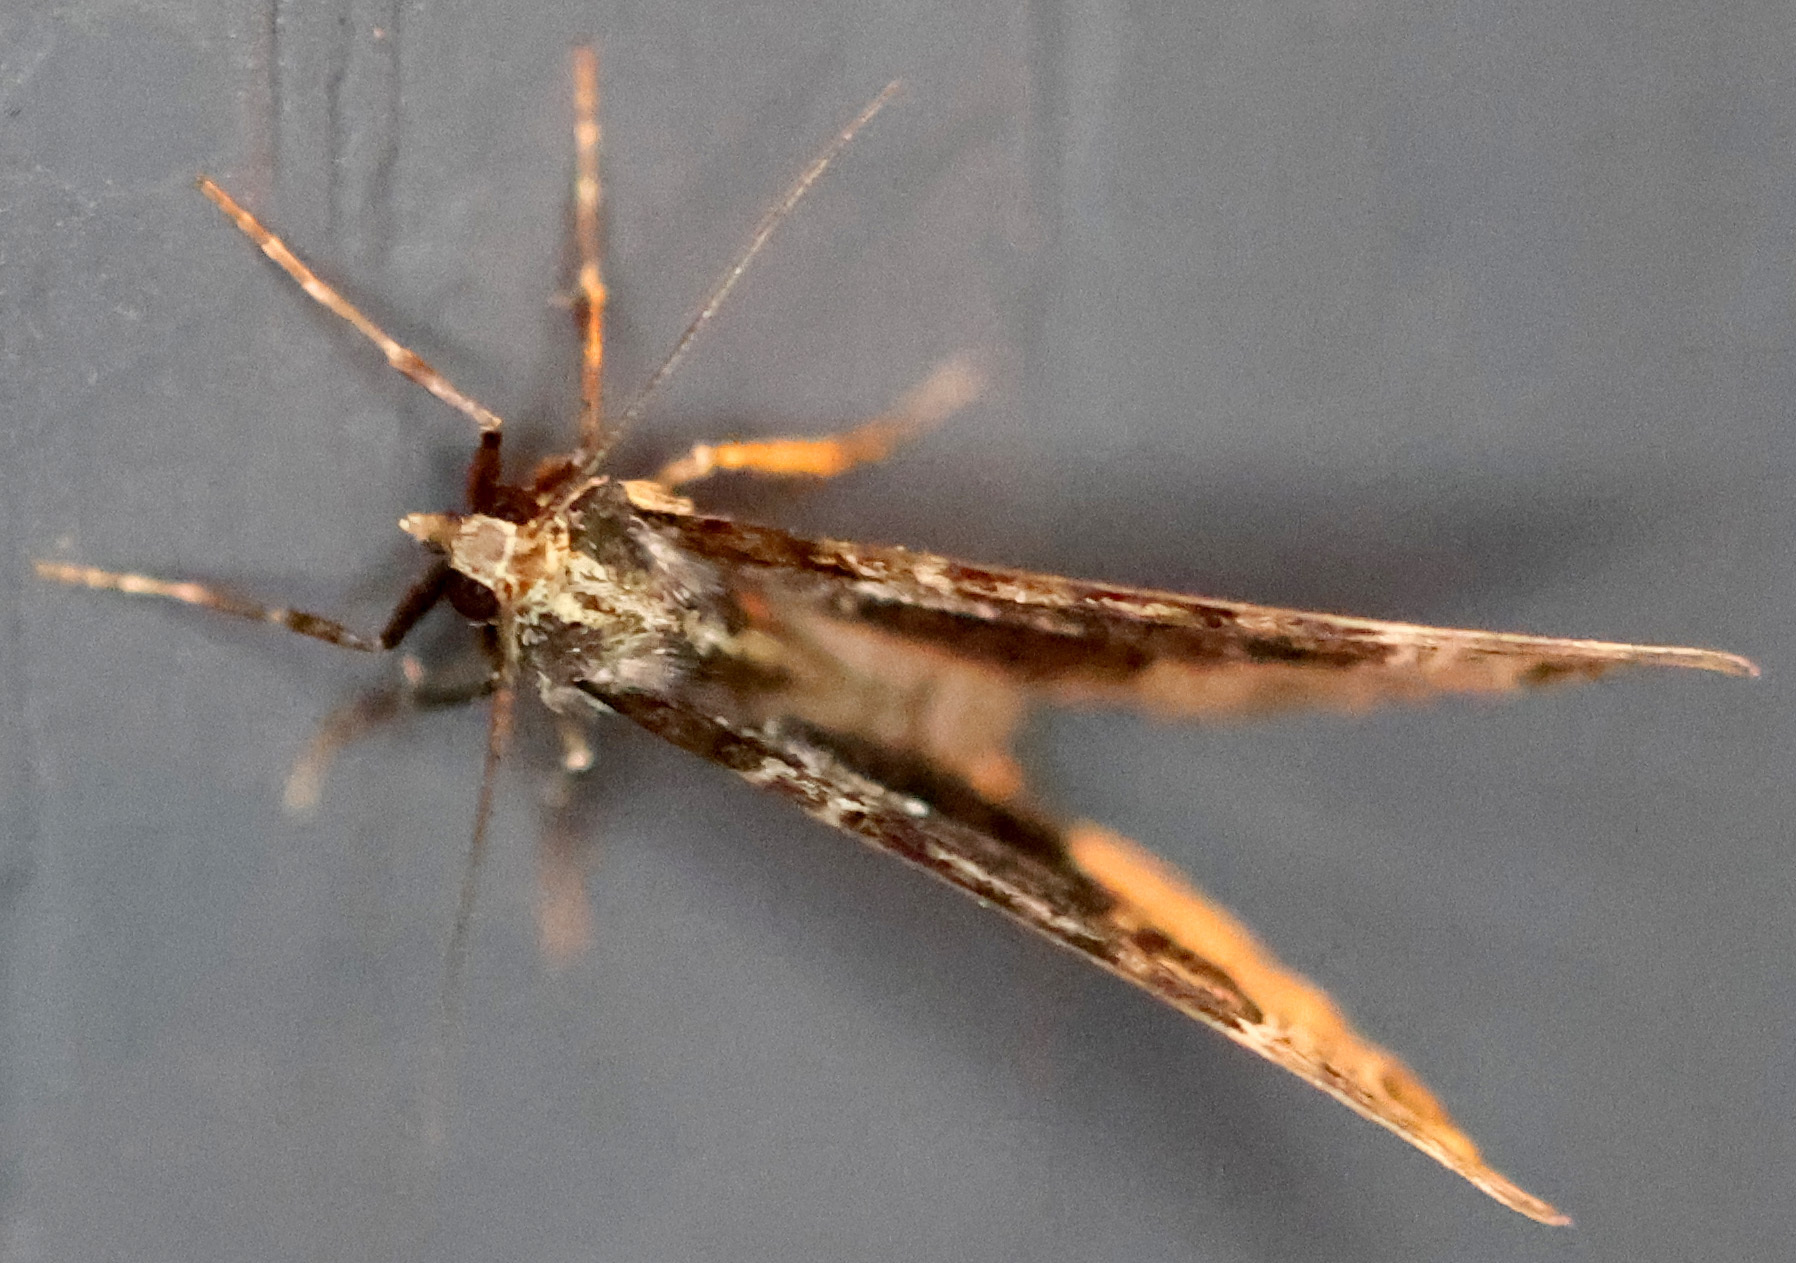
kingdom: Animalia
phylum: Arthropoda
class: Insecta
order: Lepidoptera
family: Geometridae
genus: Ecliptopera
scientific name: Ecliptopera silaceata
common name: Small phoenix
